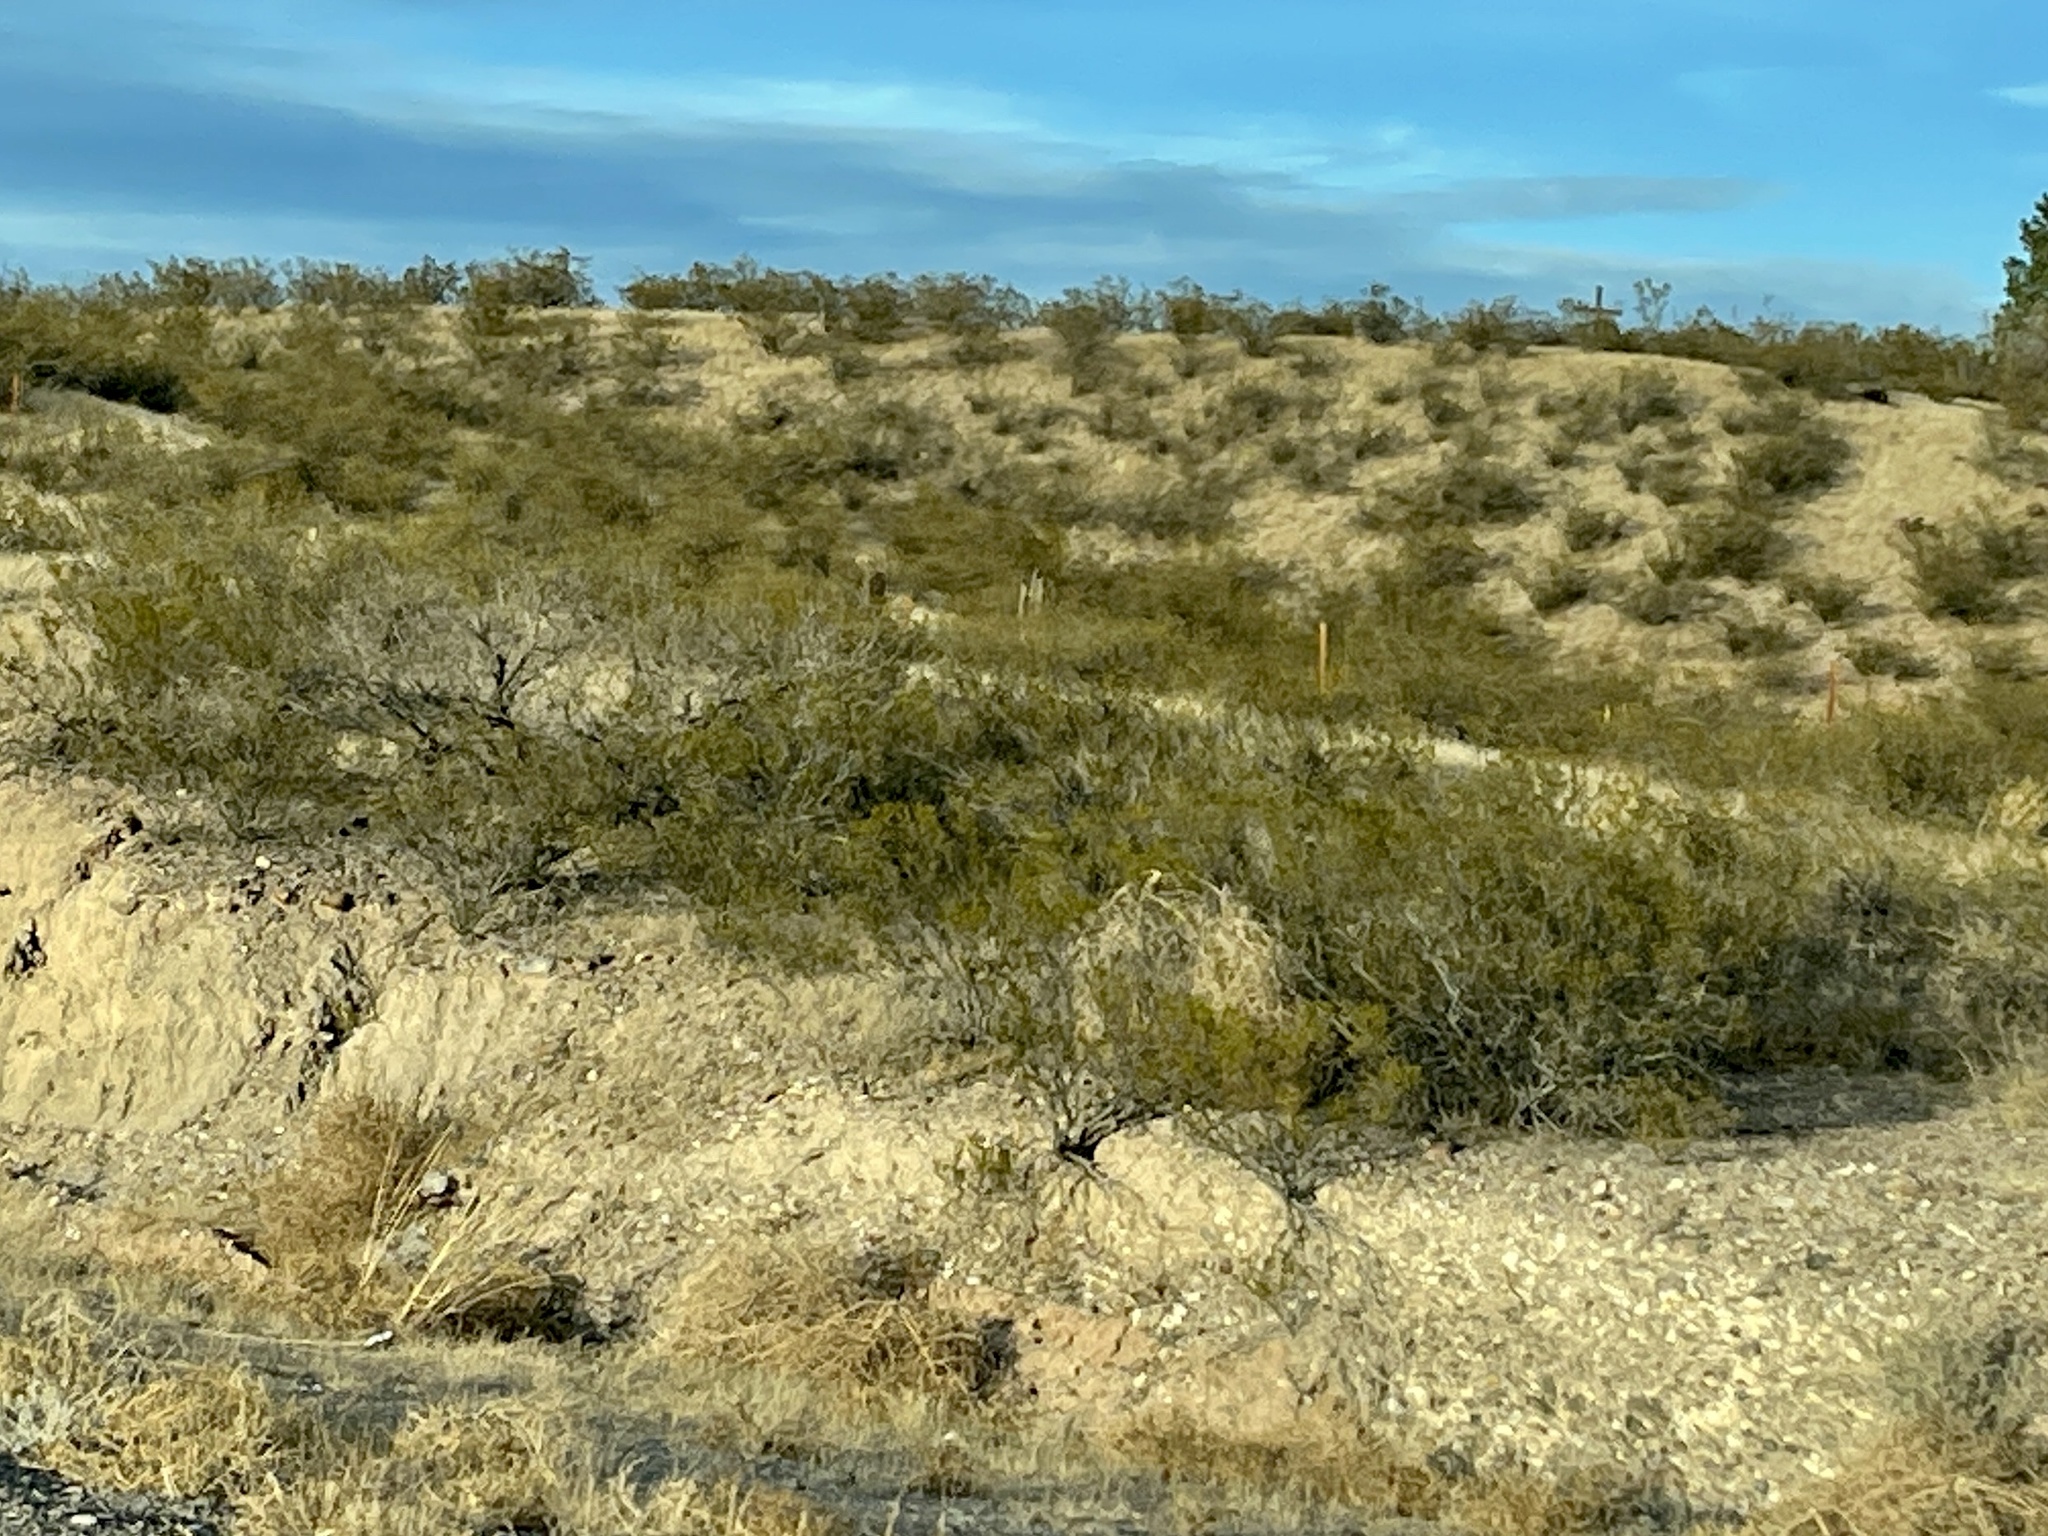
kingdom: Plantae
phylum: Tracheophyta
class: Magnoliopsida
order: Zygophyllales
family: Zygophyllaceae
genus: Larrea
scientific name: Larrea tridentata
